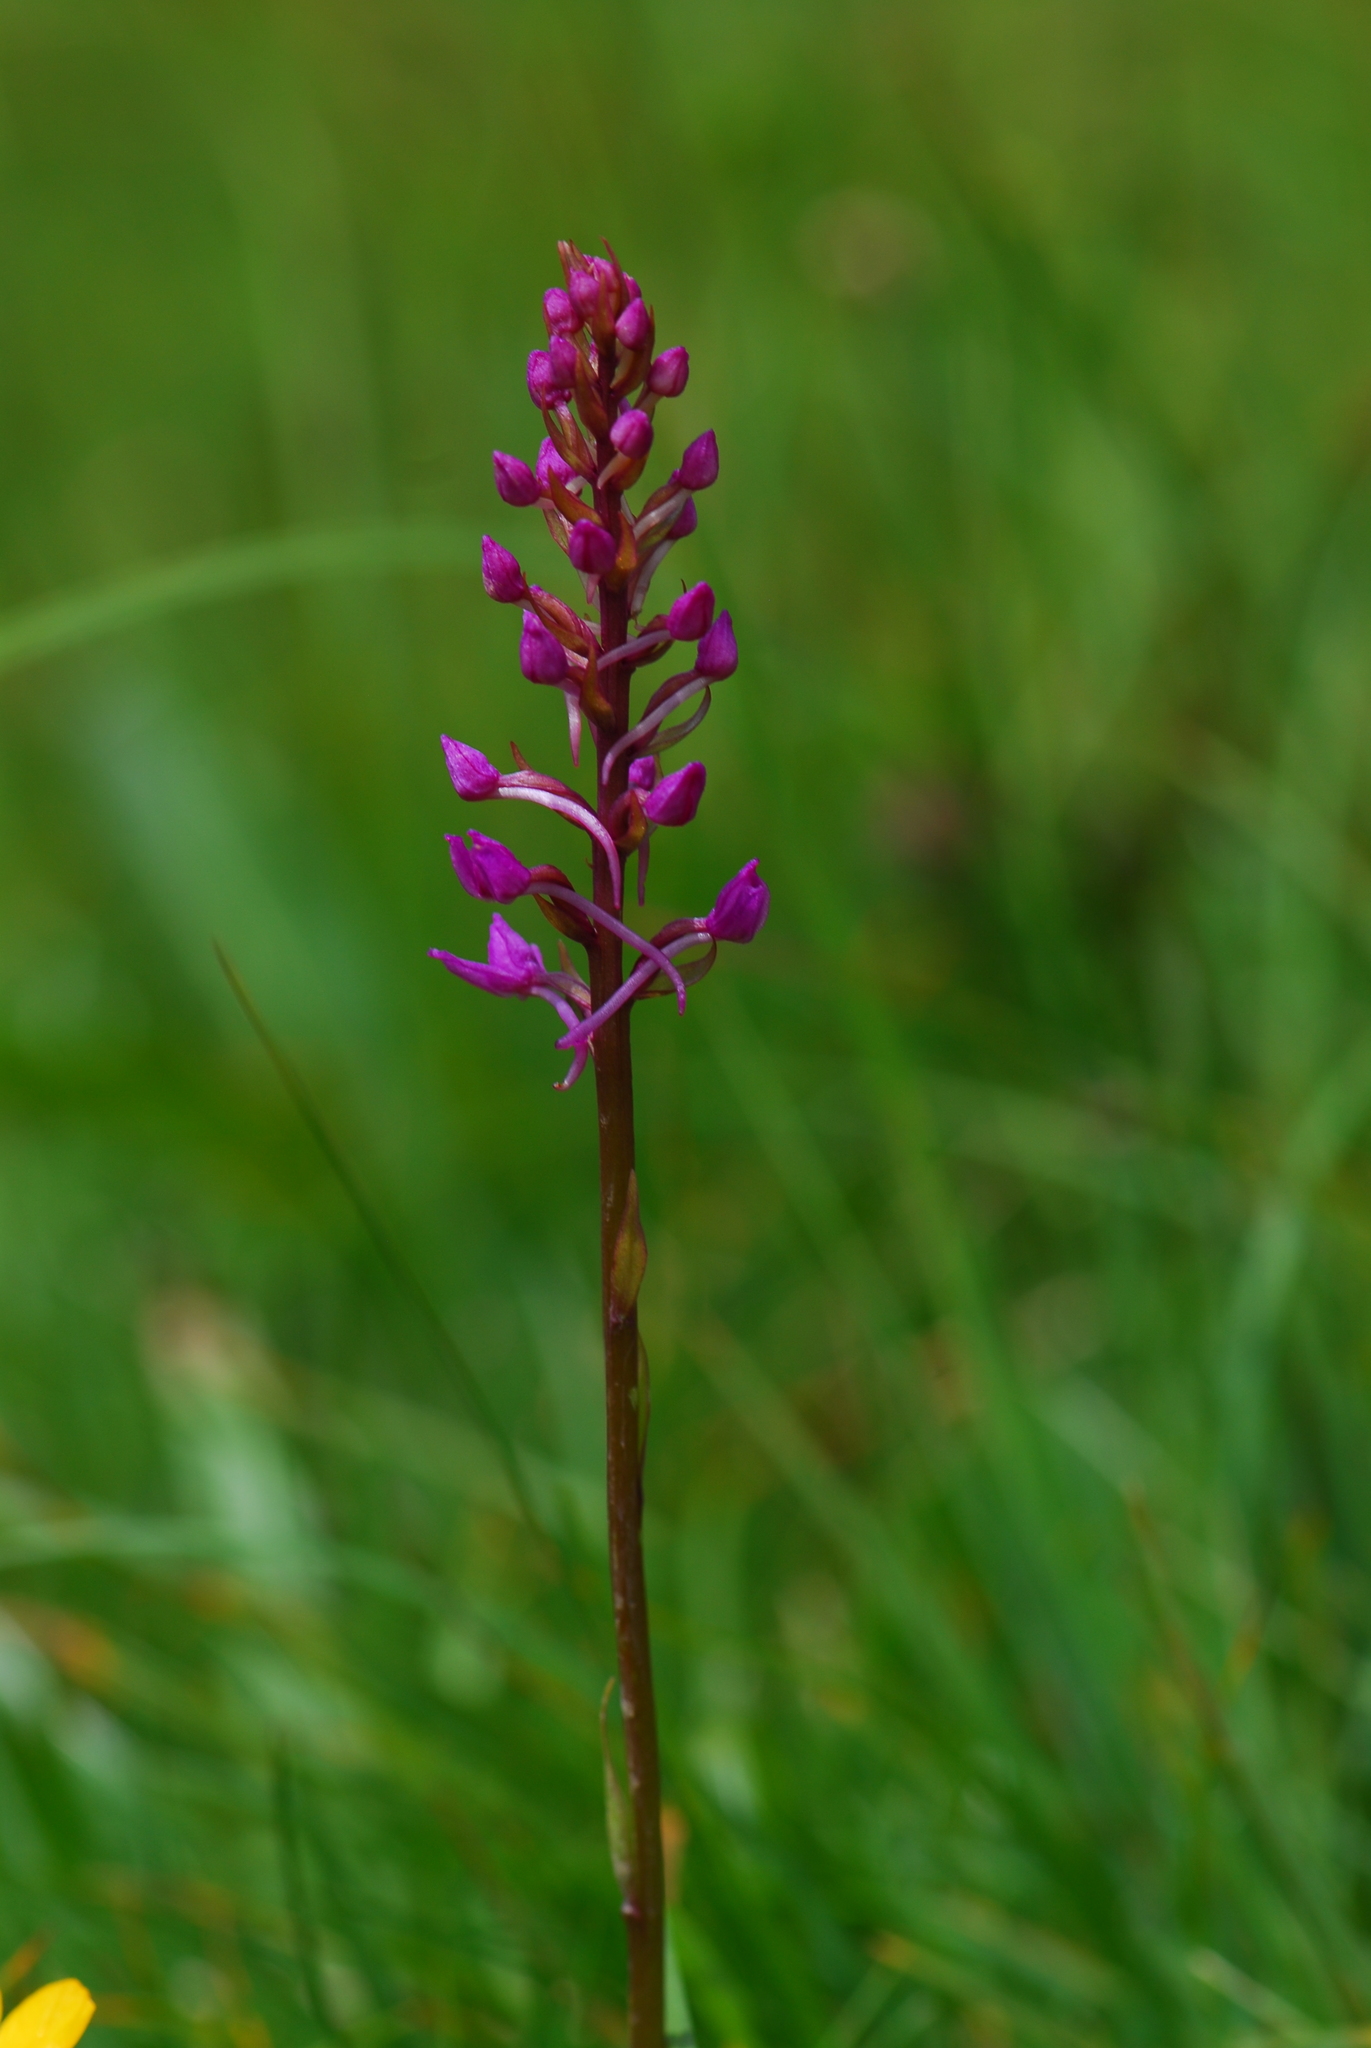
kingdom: Plantae
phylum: Tracheophyta
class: Liliopsida
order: Asparagales
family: Orchidaceae
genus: Gymnadenia
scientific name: Gymnadenia conopsea
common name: Fragrant orchid
